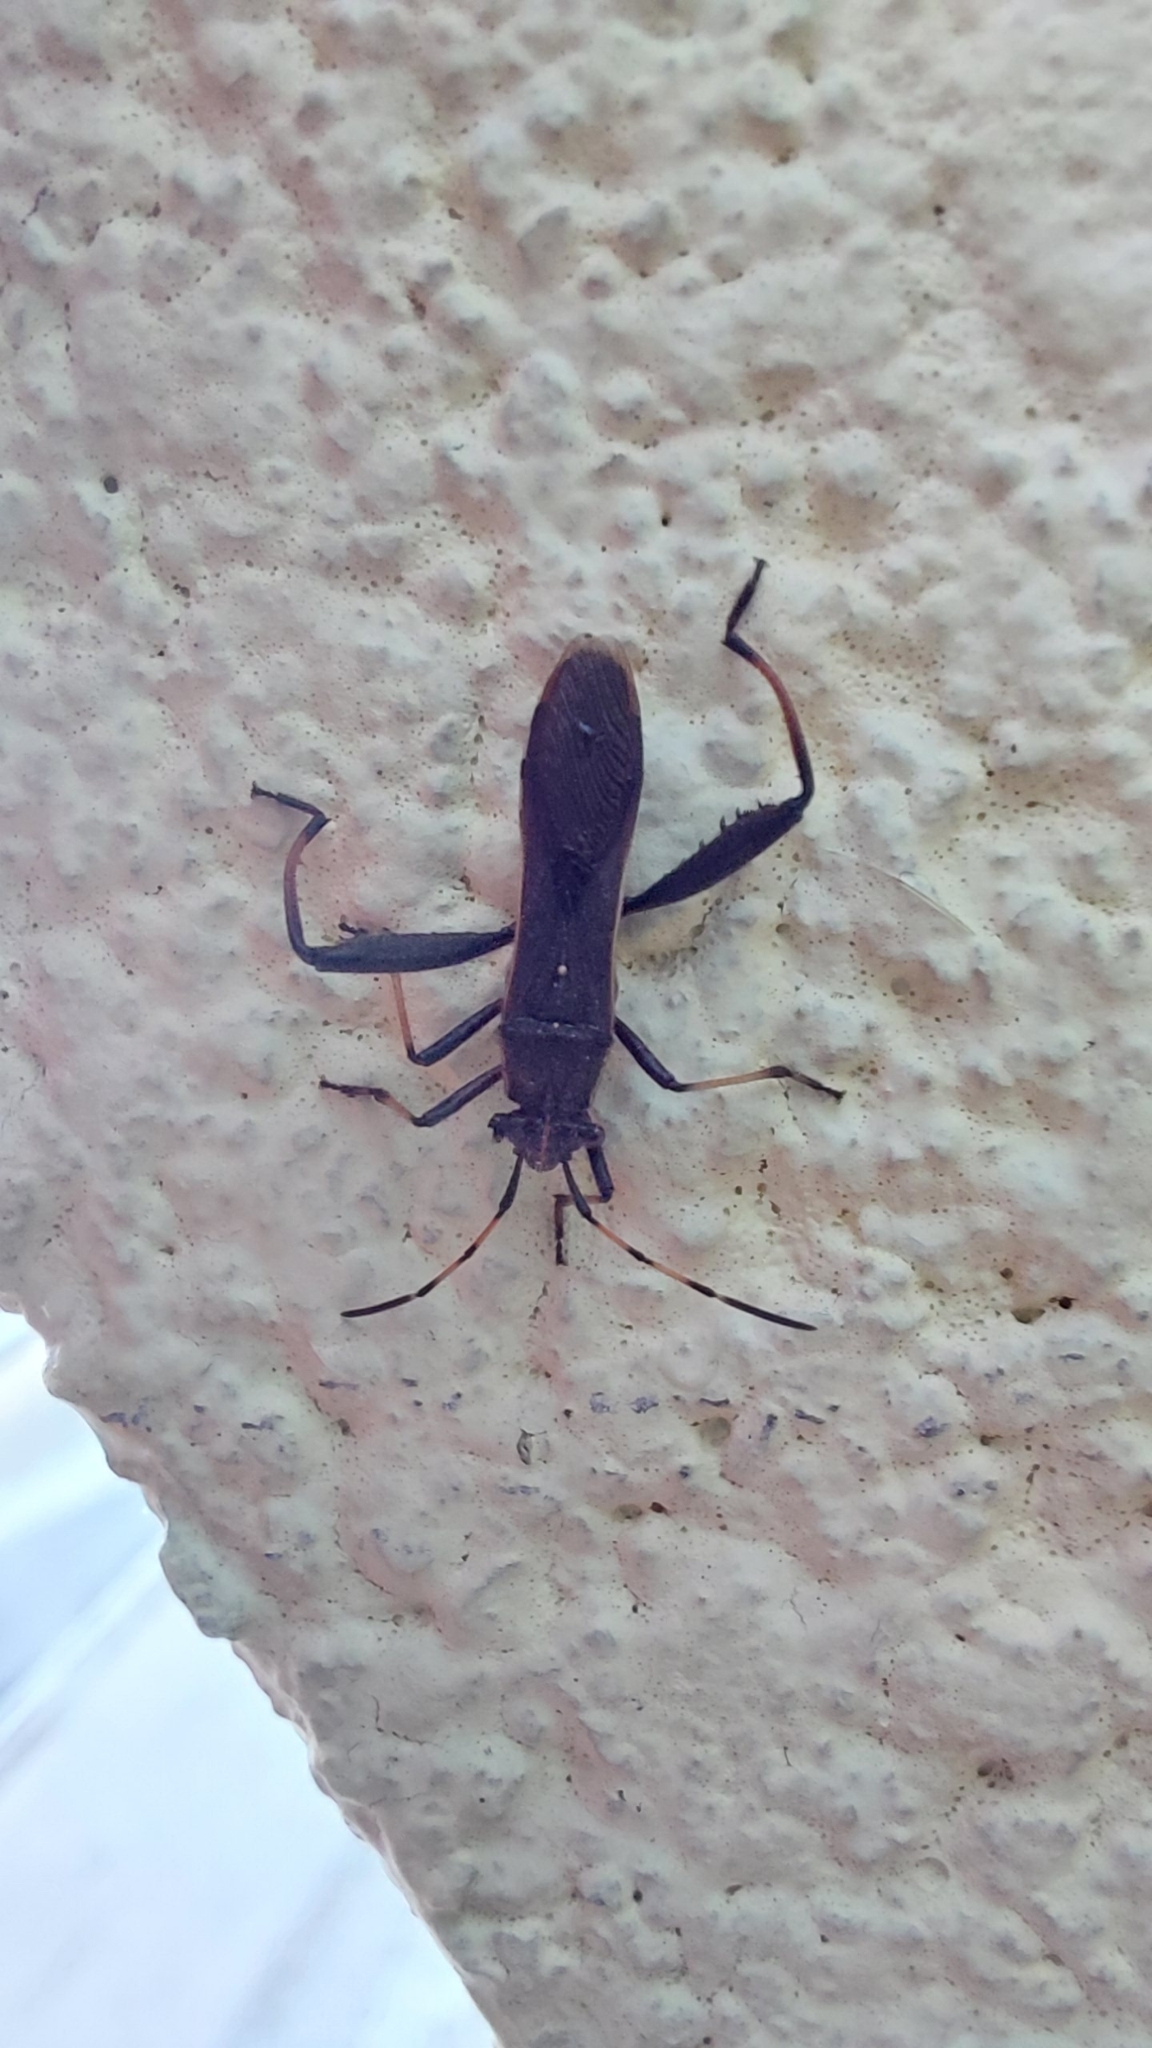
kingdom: Animalia
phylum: Arthropoda
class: Insecta
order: Hemiptera
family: Alydidae
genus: Camptopus
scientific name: Camptopus lateralis
